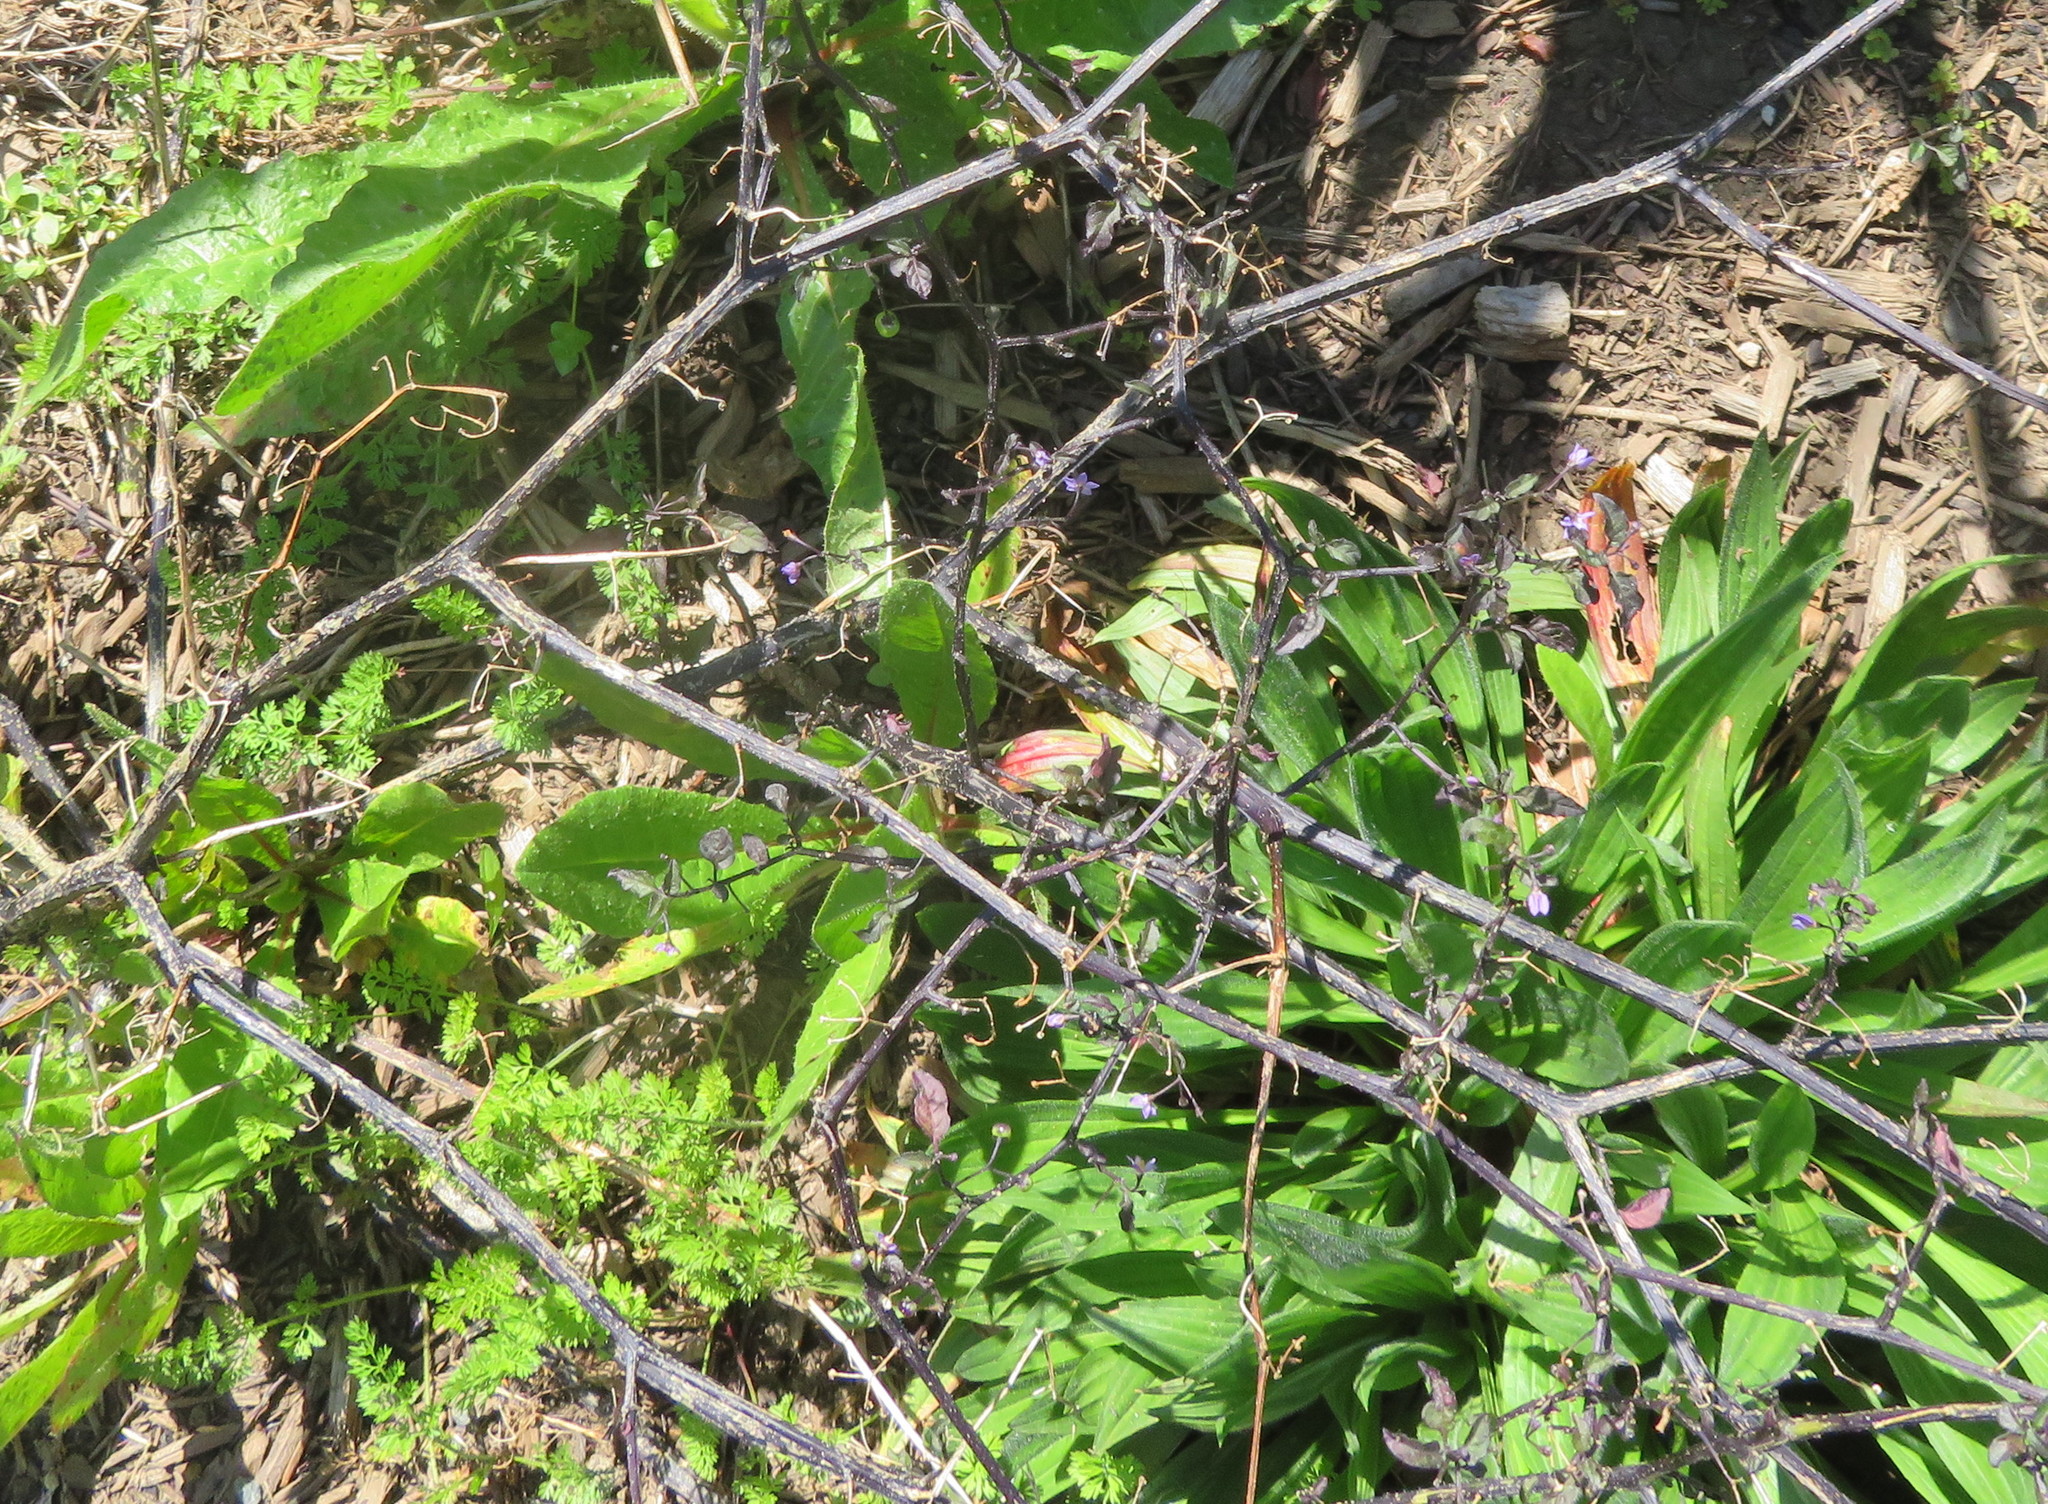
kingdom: Plantae
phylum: Tracheophyta
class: Magnoliopsida
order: Lamiales
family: Plantaginaceae
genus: Plantago
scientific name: Plantago lanceolata
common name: Ribwort plantain
